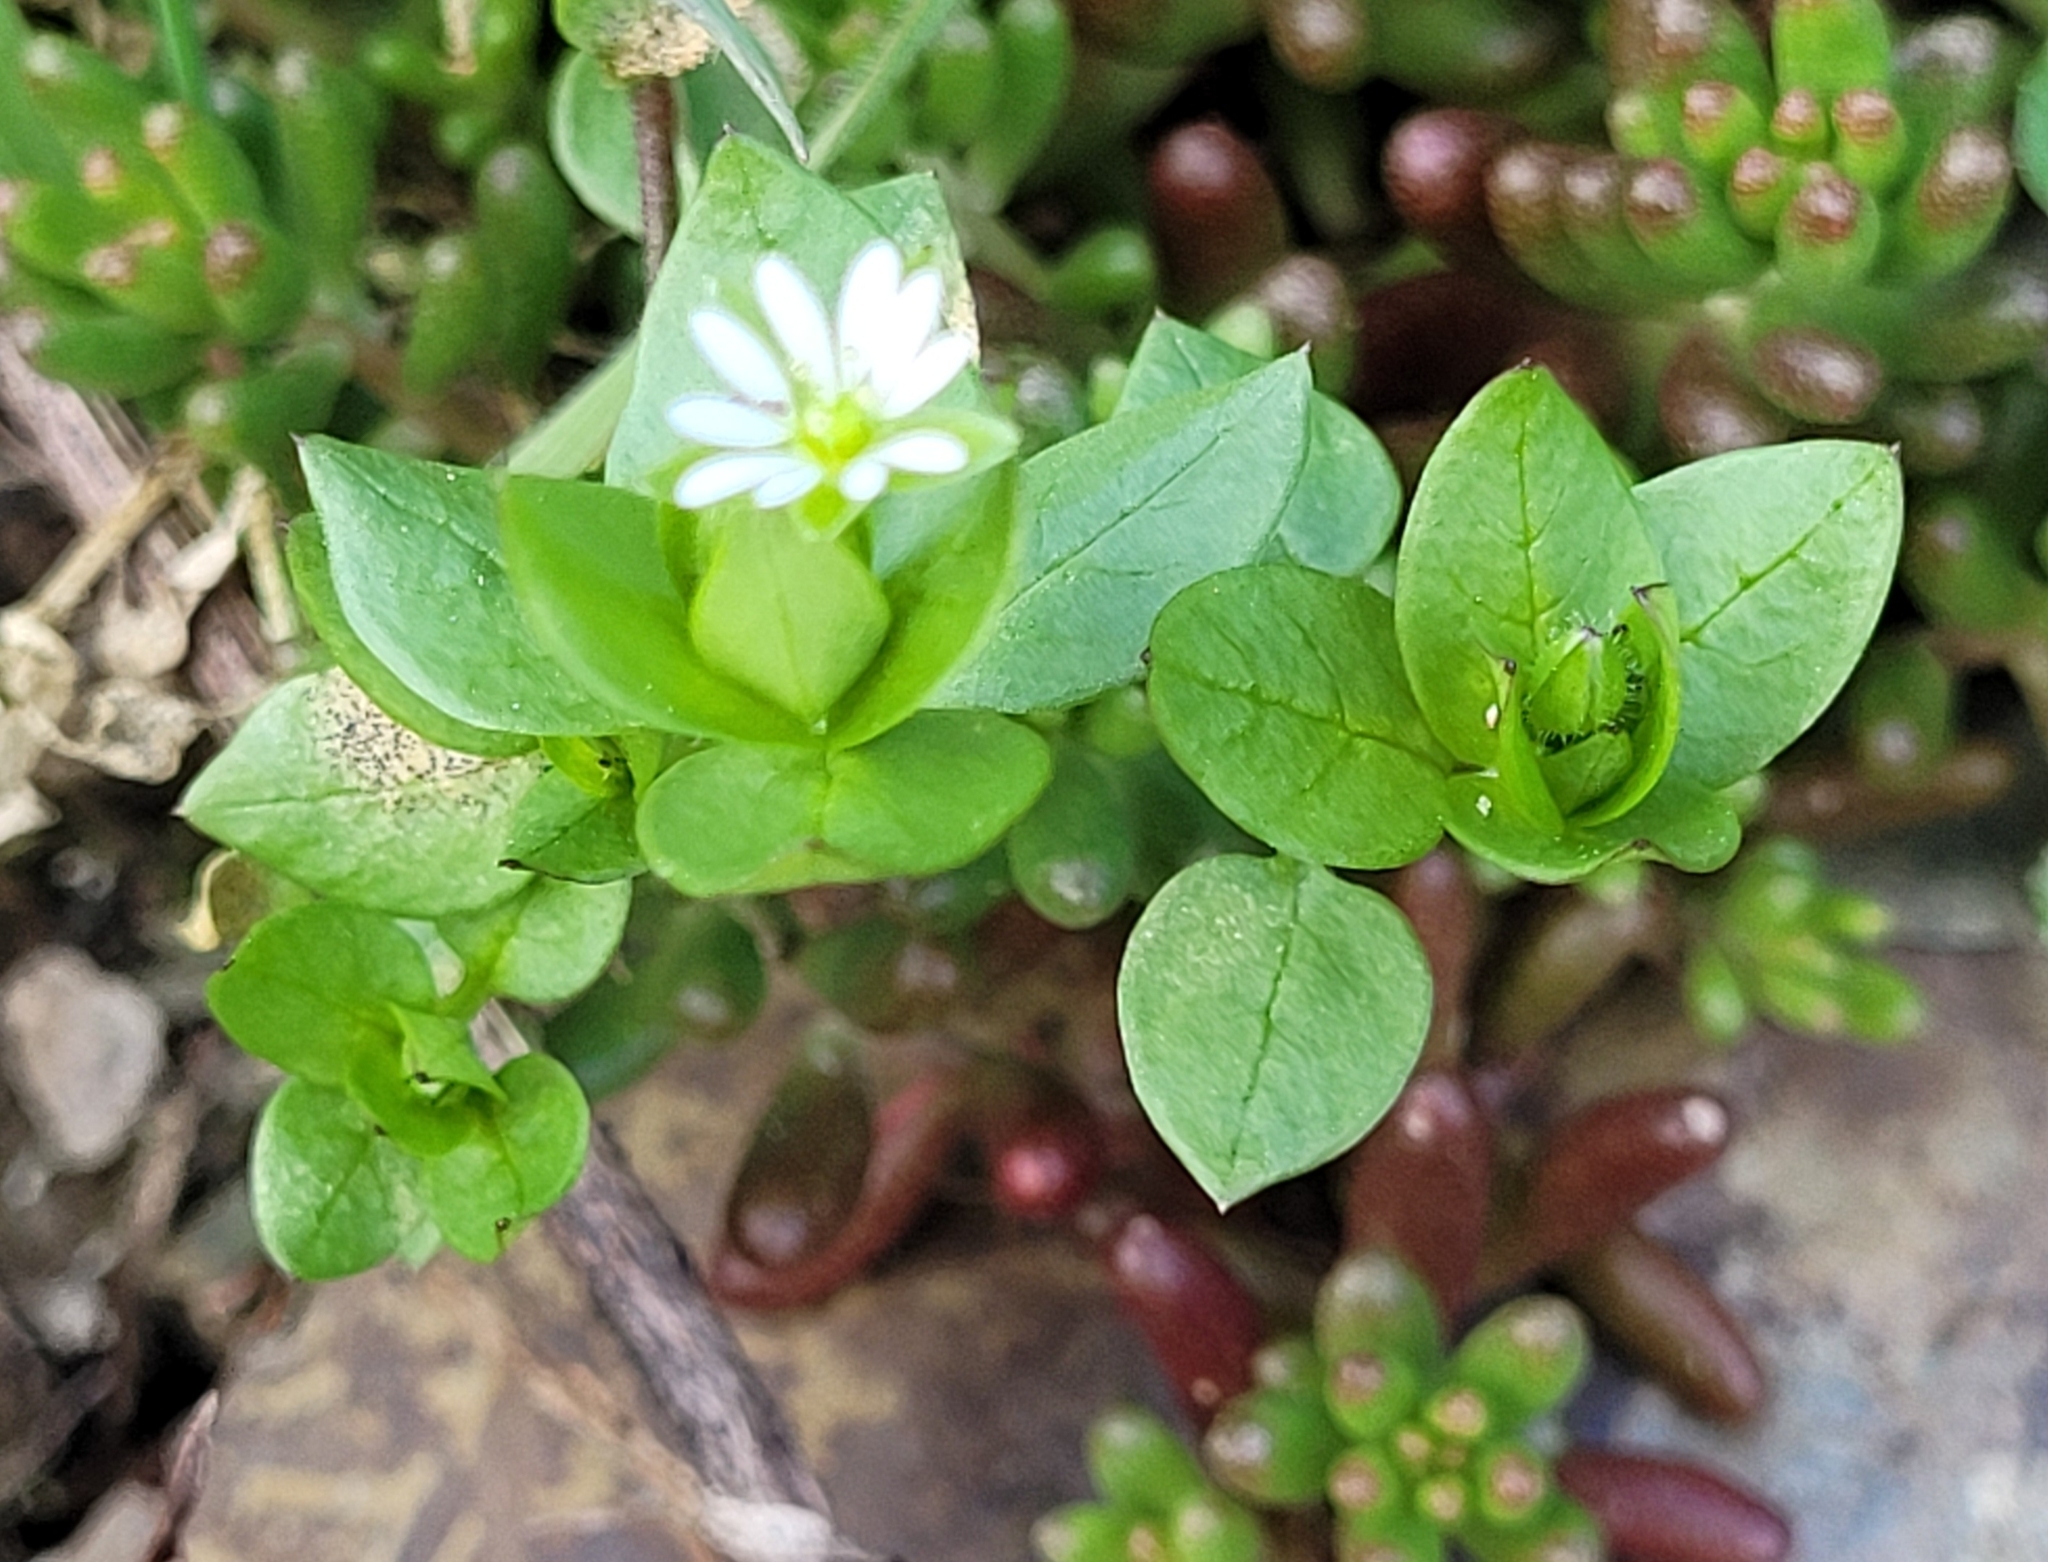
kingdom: Plantae
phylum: Tracheophyta
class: Magnoliopsida
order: Caryophyllales
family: Caryophyllaceae
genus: Stellaria
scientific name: Stellaria media
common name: Common chickweed
